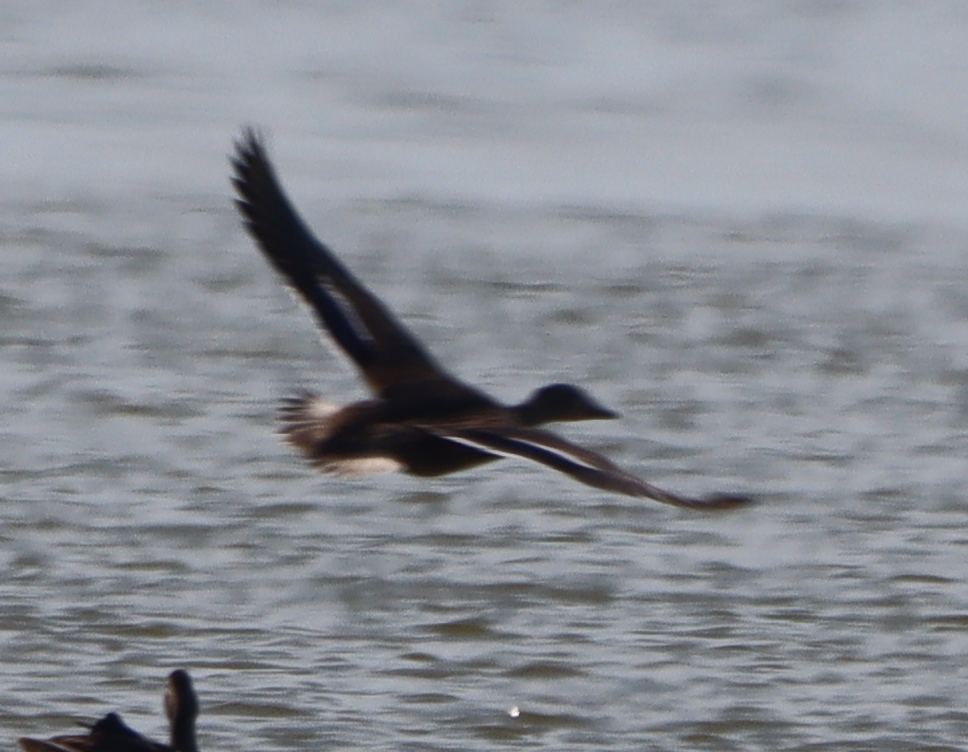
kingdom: Animalia
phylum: Chordata
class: Aves
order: Anseriformes
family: Anatidae
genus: Anas
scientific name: Anas platyrhynchos
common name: Mallard
